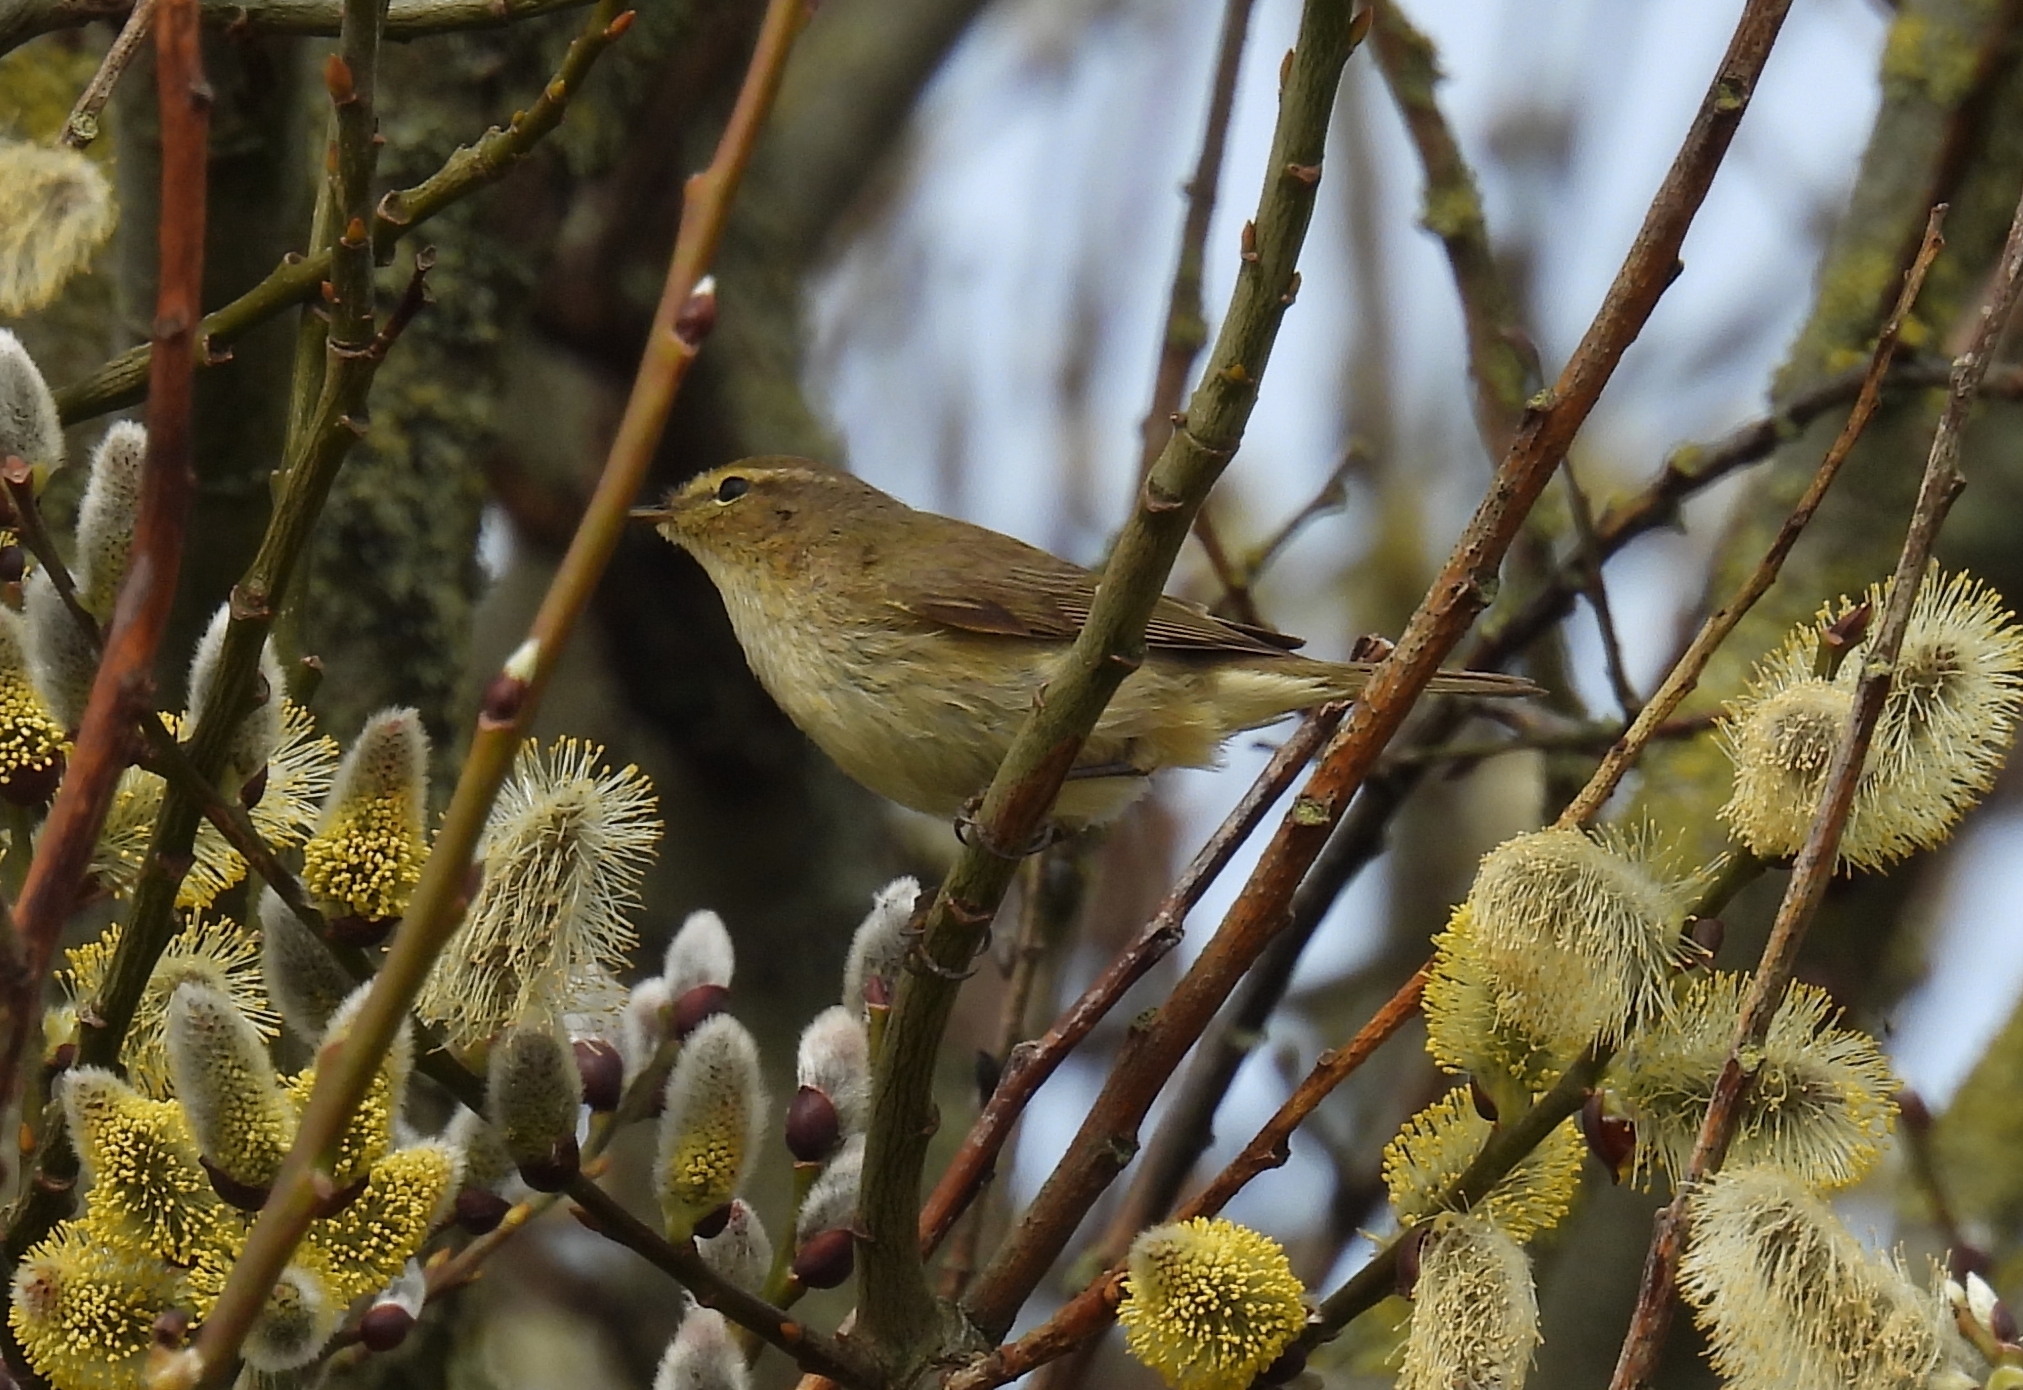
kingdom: Animalia
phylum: Chordata
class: Aves
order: Passeriformes
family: Phylloscopidae
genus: Phylloscopus
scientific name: Phylloscopus collybita
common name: Common chiffchaff
